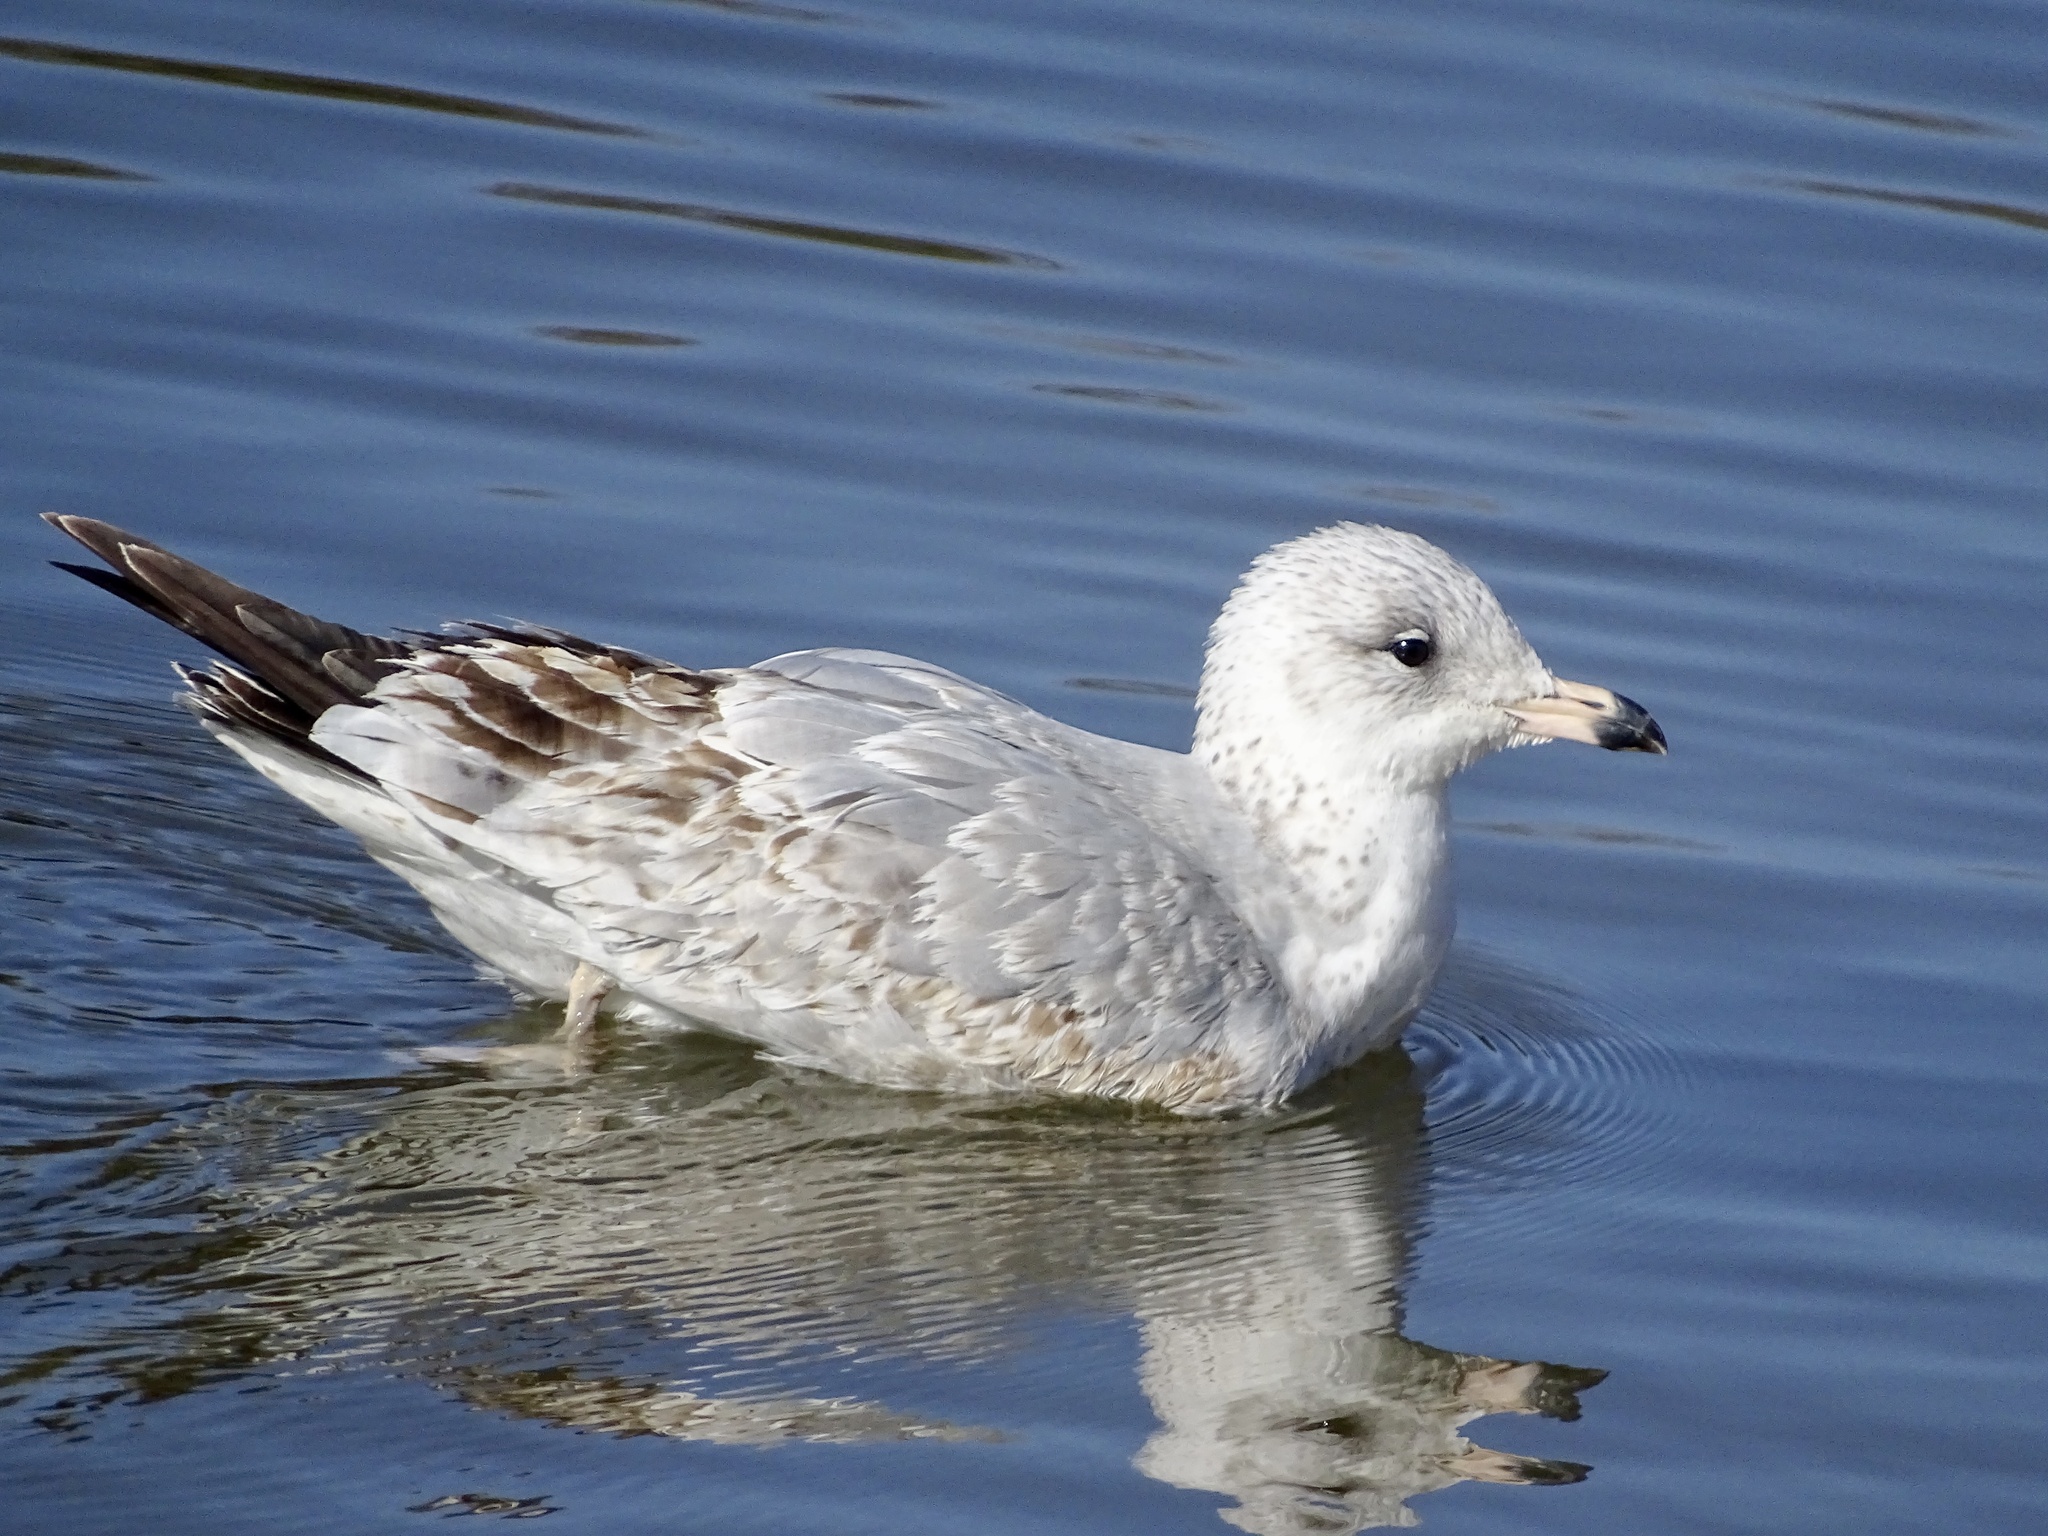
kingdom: Animalia
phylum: Chordata
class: Aves
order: Charadriiformes
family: Laridae
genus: Larus
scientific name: Larus delawarensis
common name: Ring-billed gull
